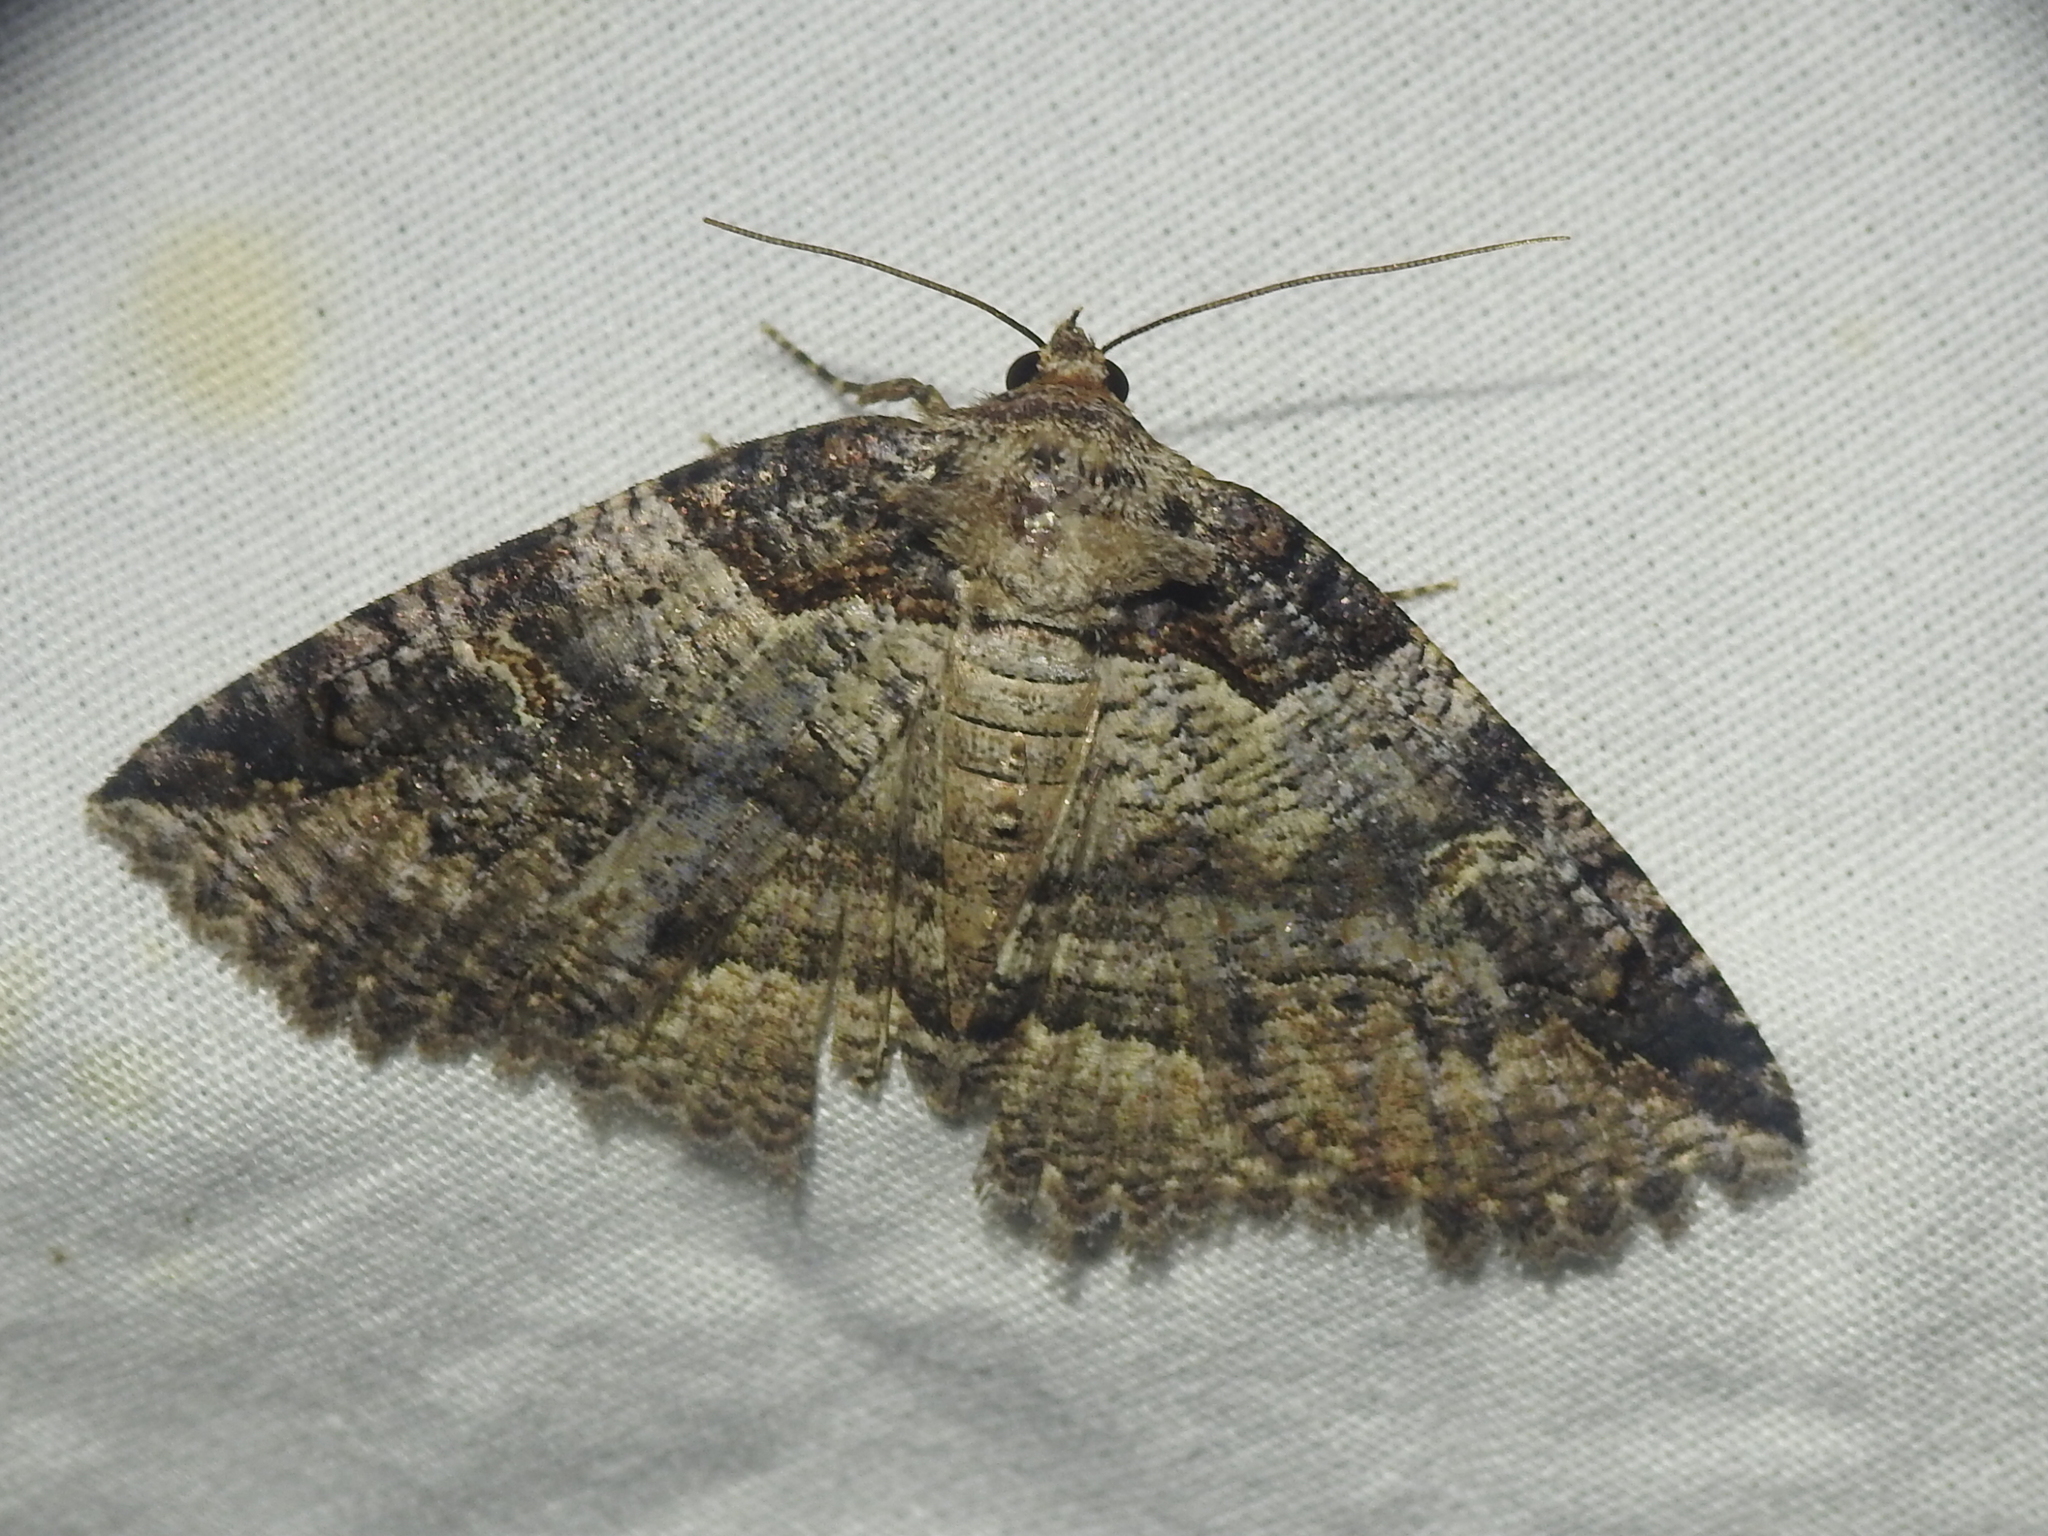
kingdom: Animalia
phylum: Arthropoda
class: Insecta
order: Lepidoptera
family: Erebidae
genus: Zale
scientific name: Zale intenta
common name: Intent zale moth
